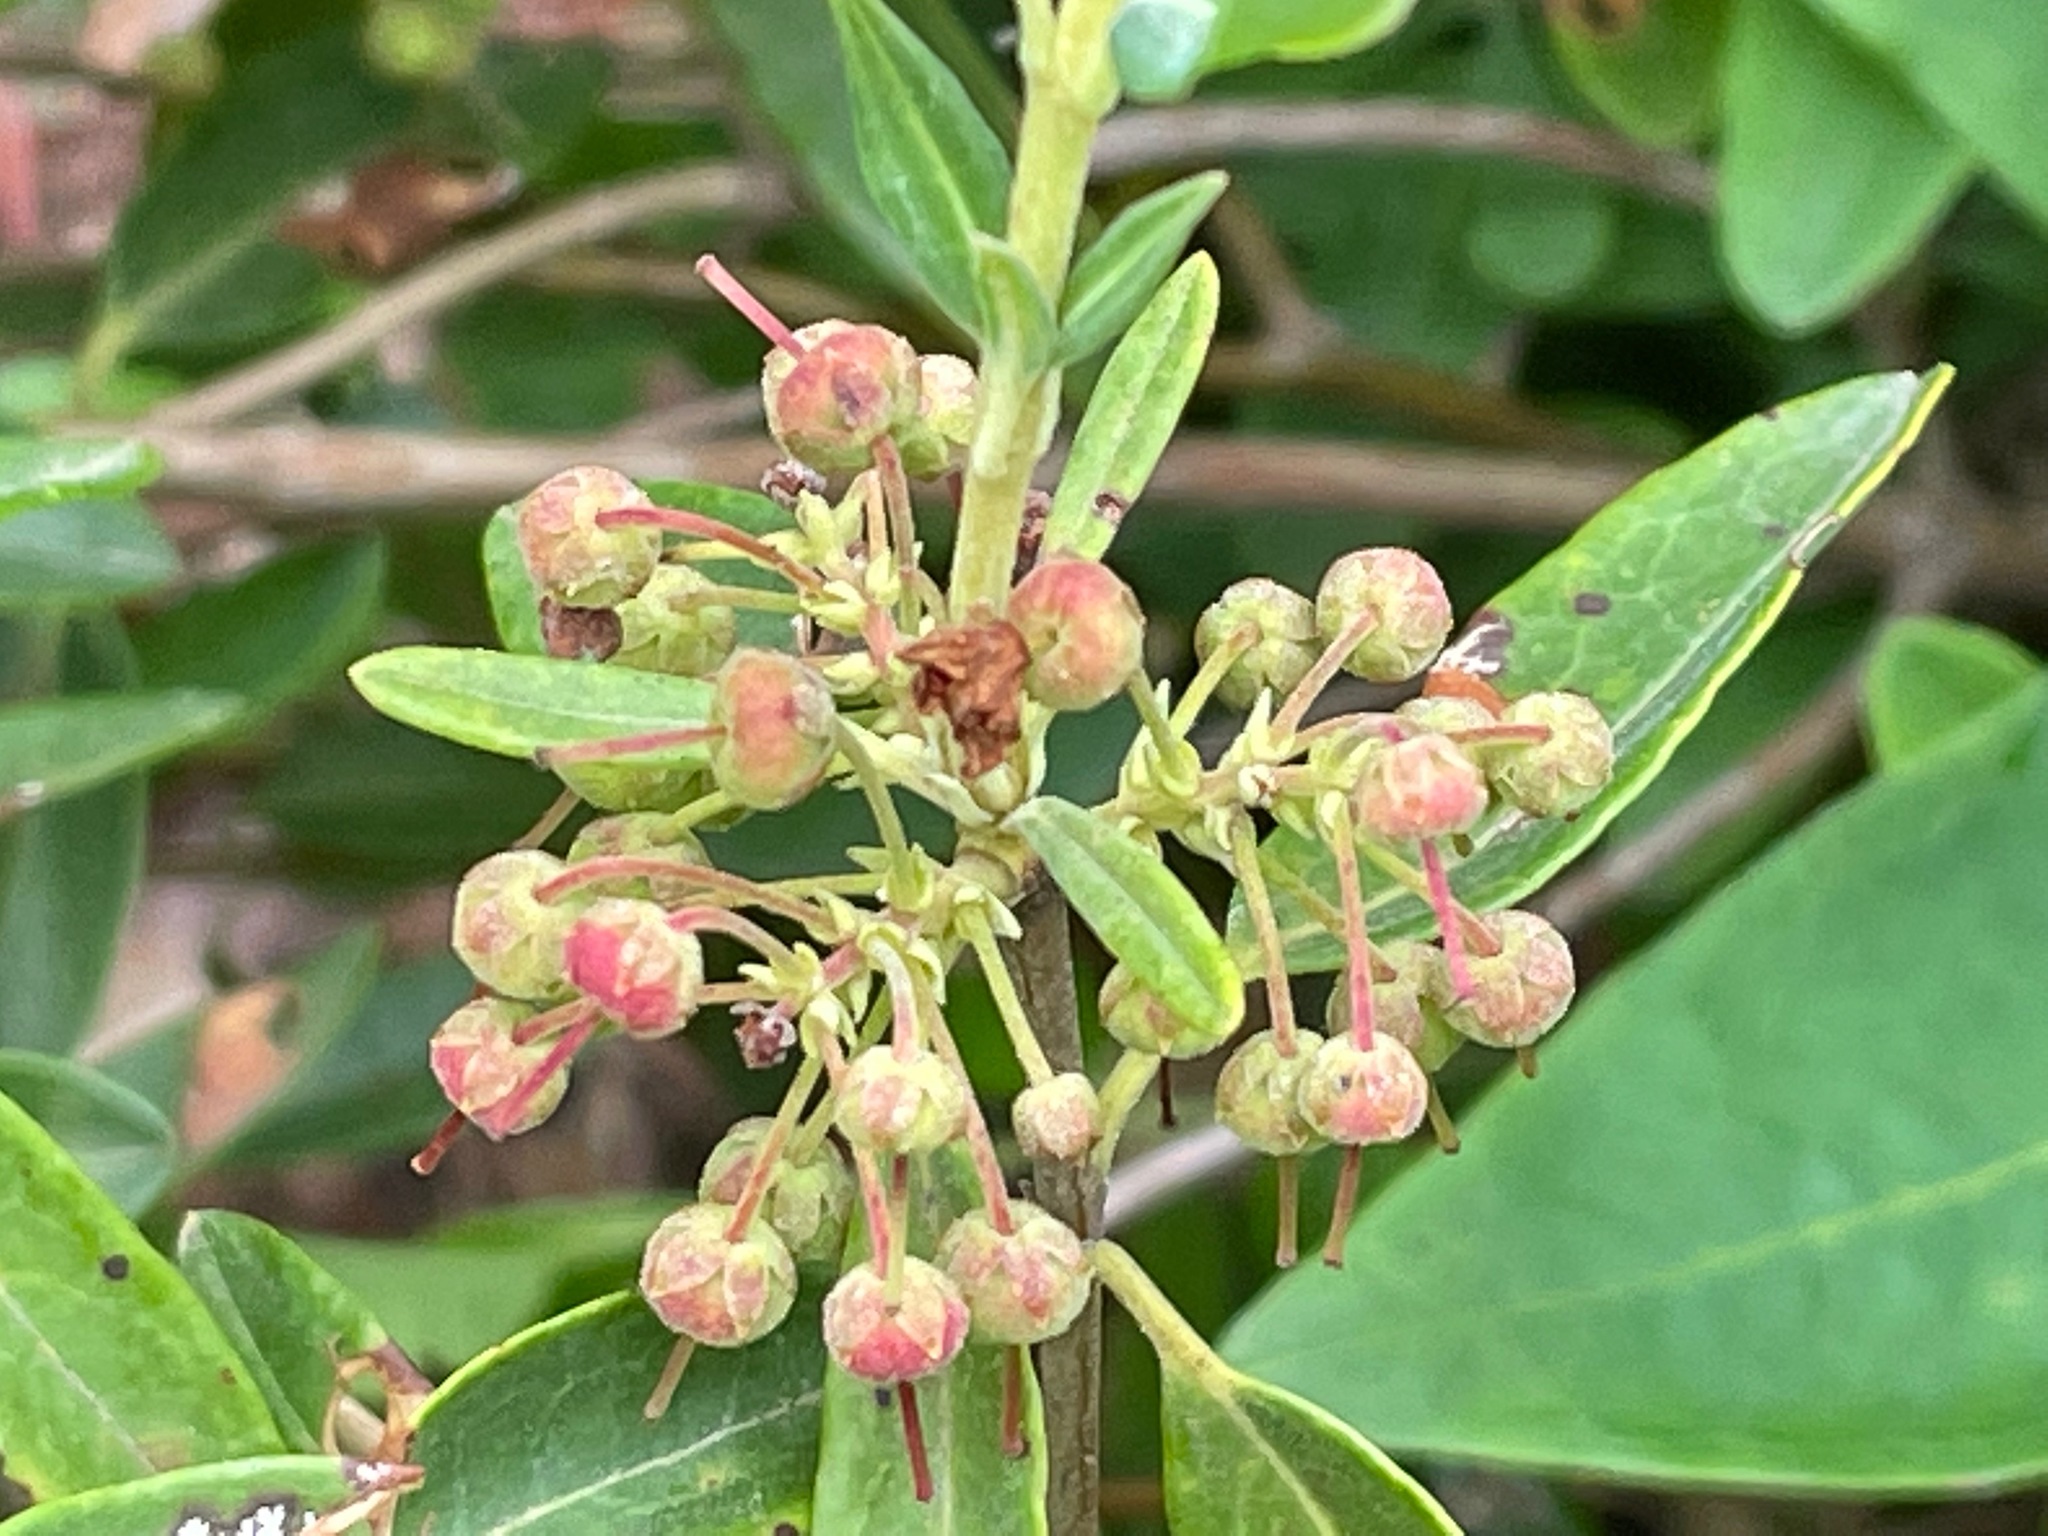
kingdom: Plantae
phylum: Tracheophyta
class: Magnoliopsida
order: Ericales
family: Ericaceae
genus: Kalmia
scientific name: Kalmia angustifolia
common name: Sheep-laurel
